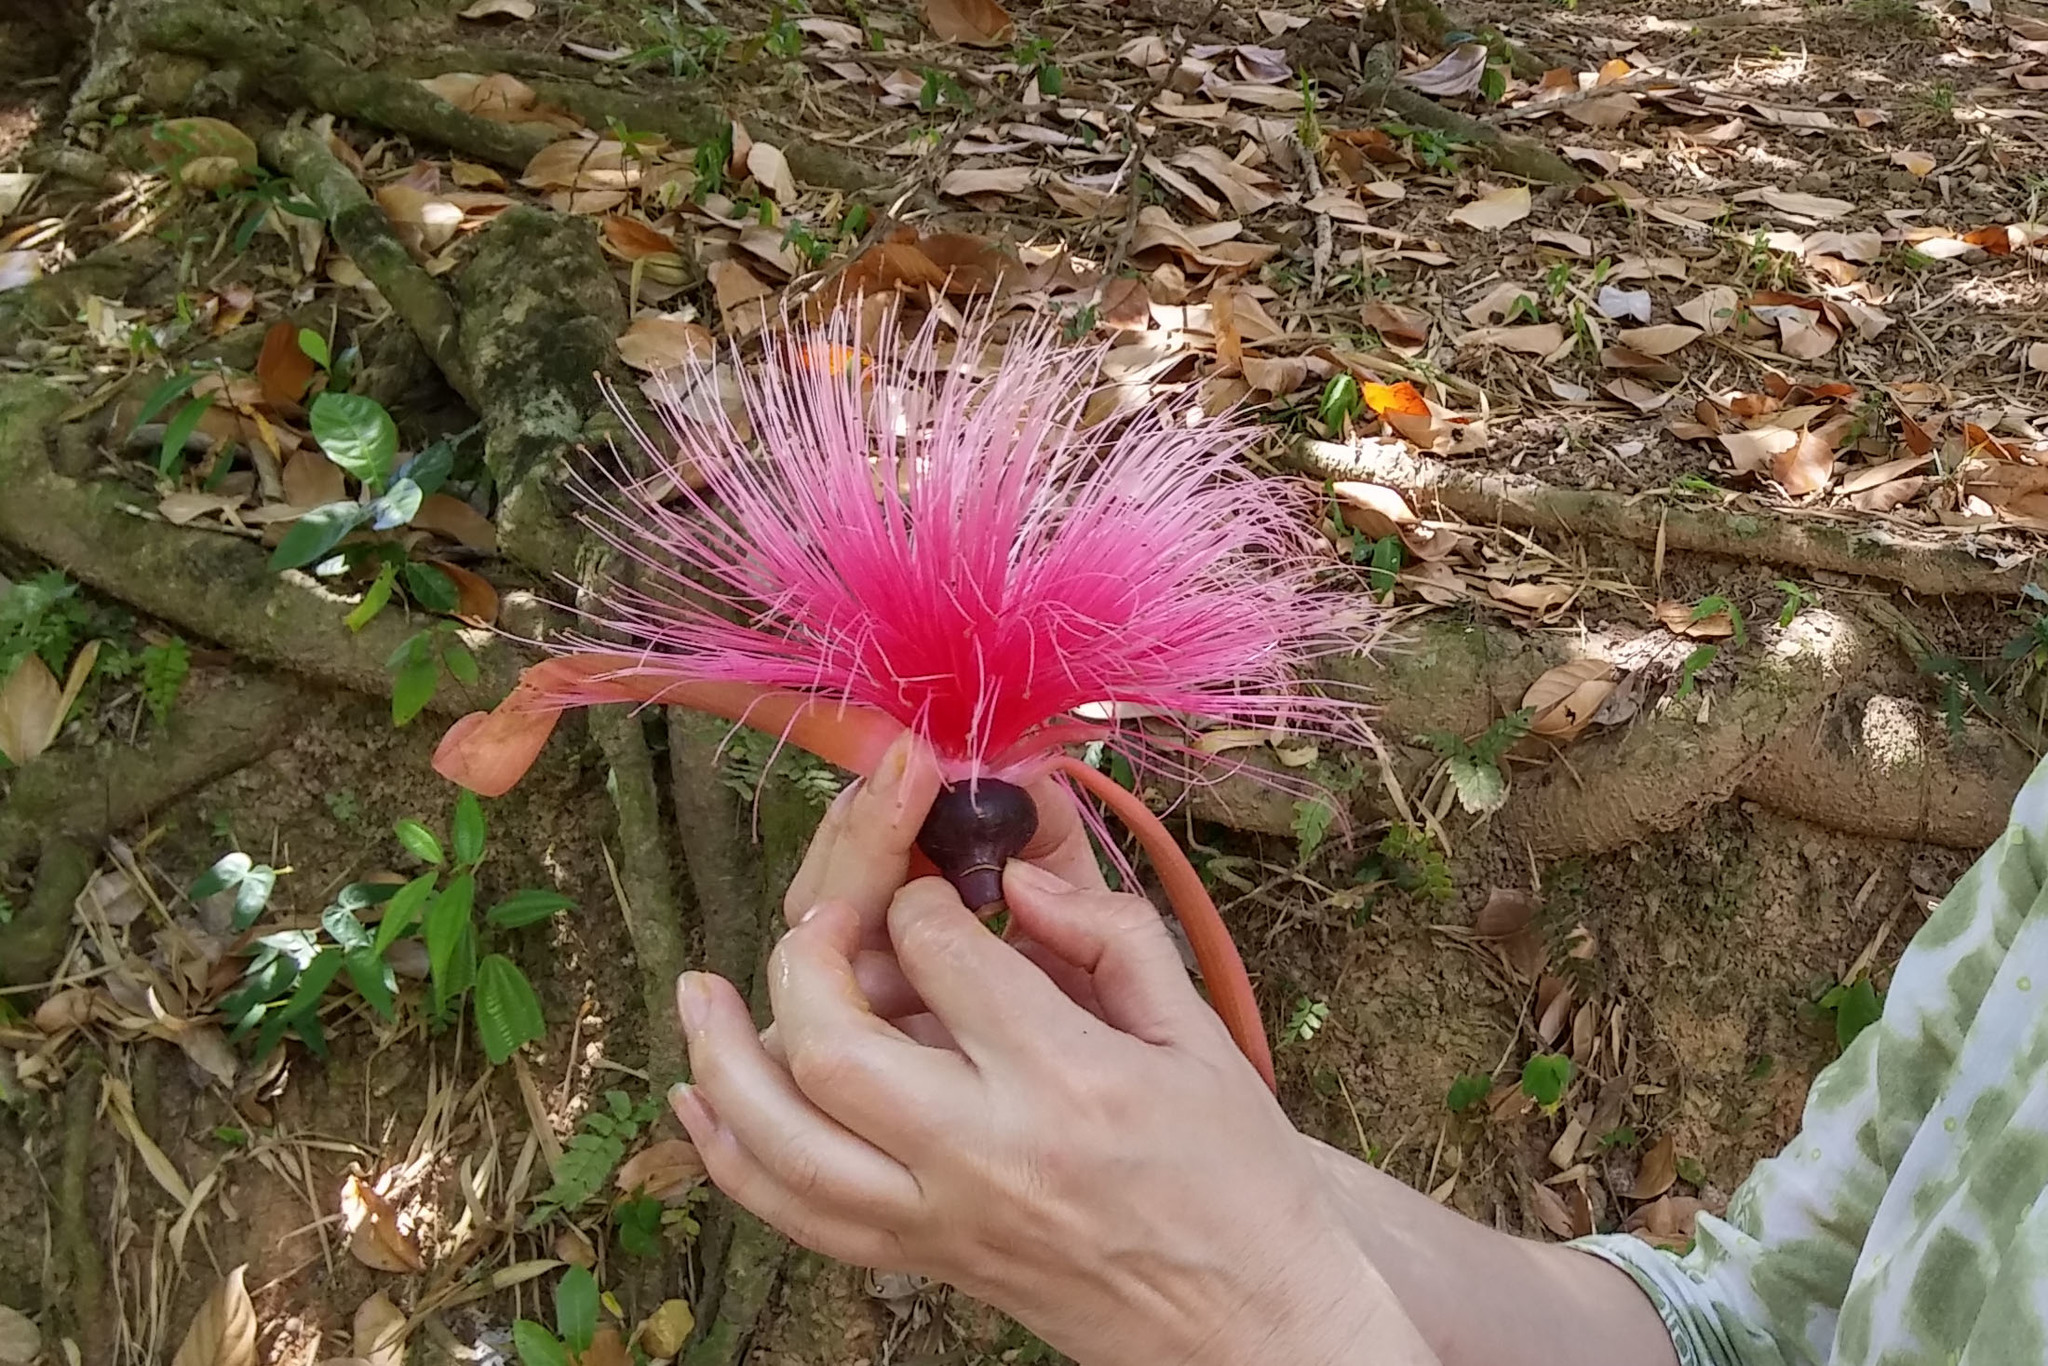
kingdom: Plantae
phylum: Tracheophyta
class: Magnoliopsida
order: Malvales
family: Malvaceae
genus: Pseudobombax
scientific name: Pseudobombax ellipticum
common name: Shaving-brush-tree
